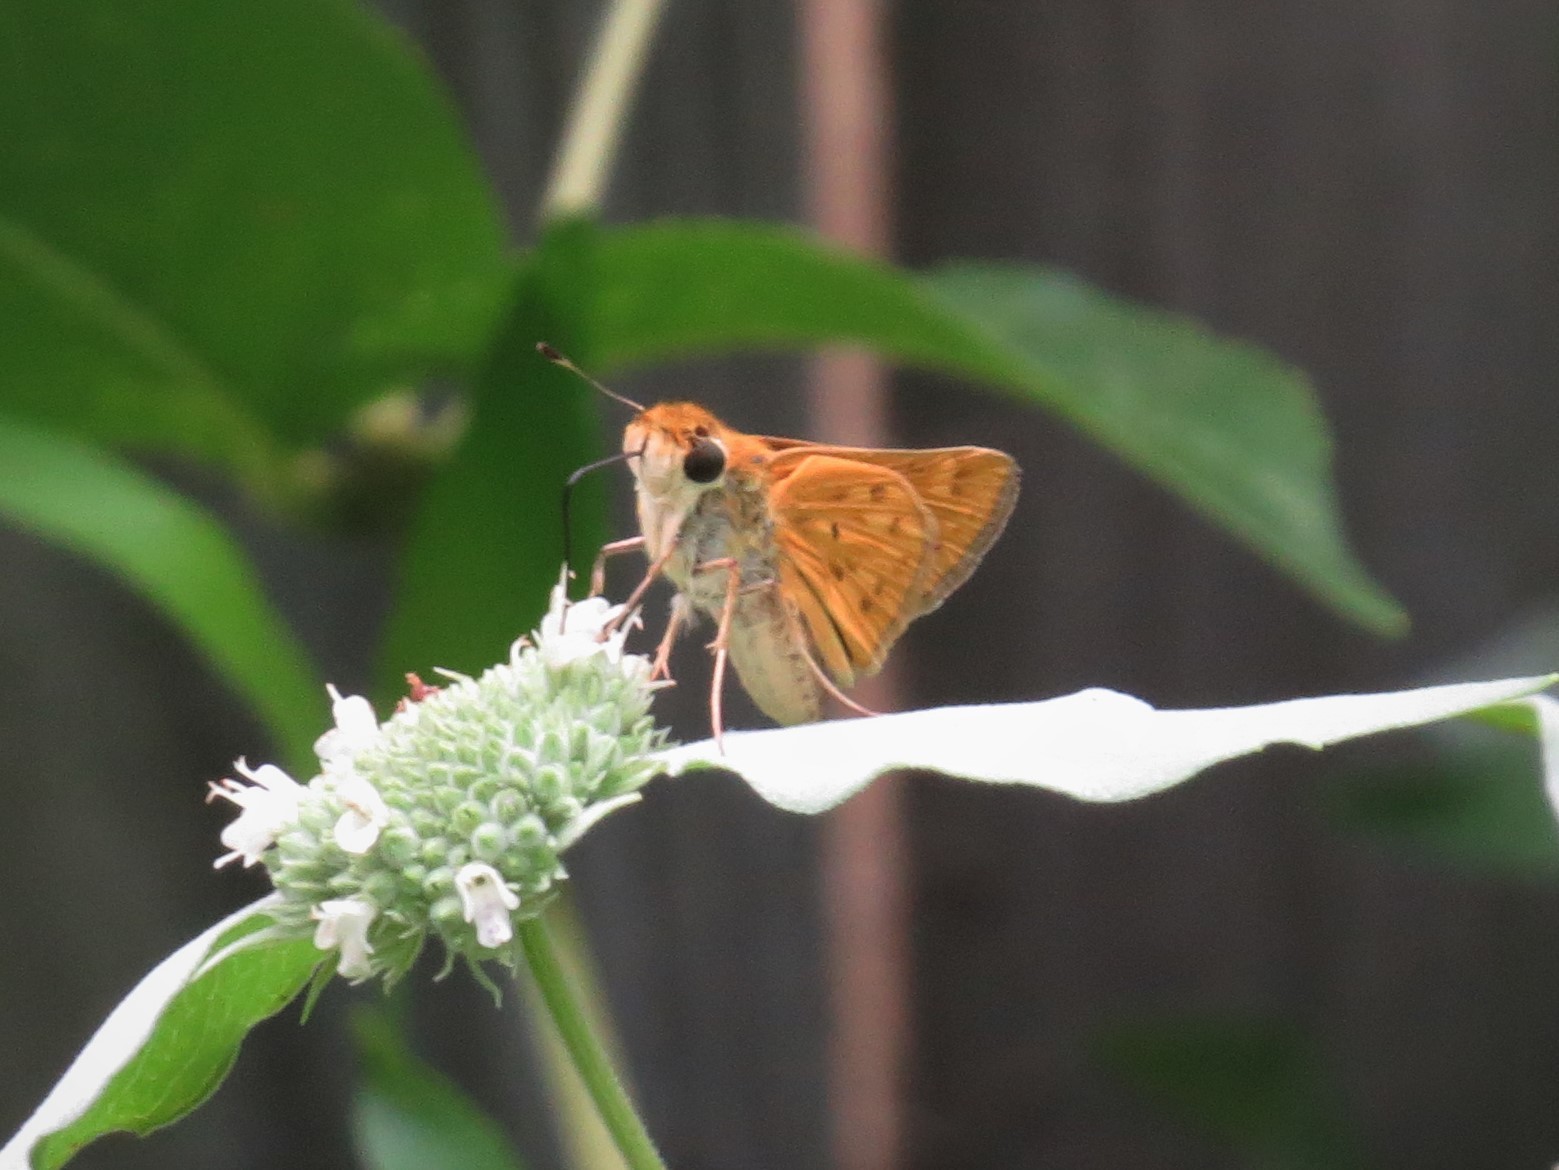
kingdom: Animalia
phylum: Arthropoda
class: Insecta
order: Lepidoptera
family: Hesperiidae
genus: Hylephila
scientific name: Hylephila phyleus
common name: Fiery skipper
